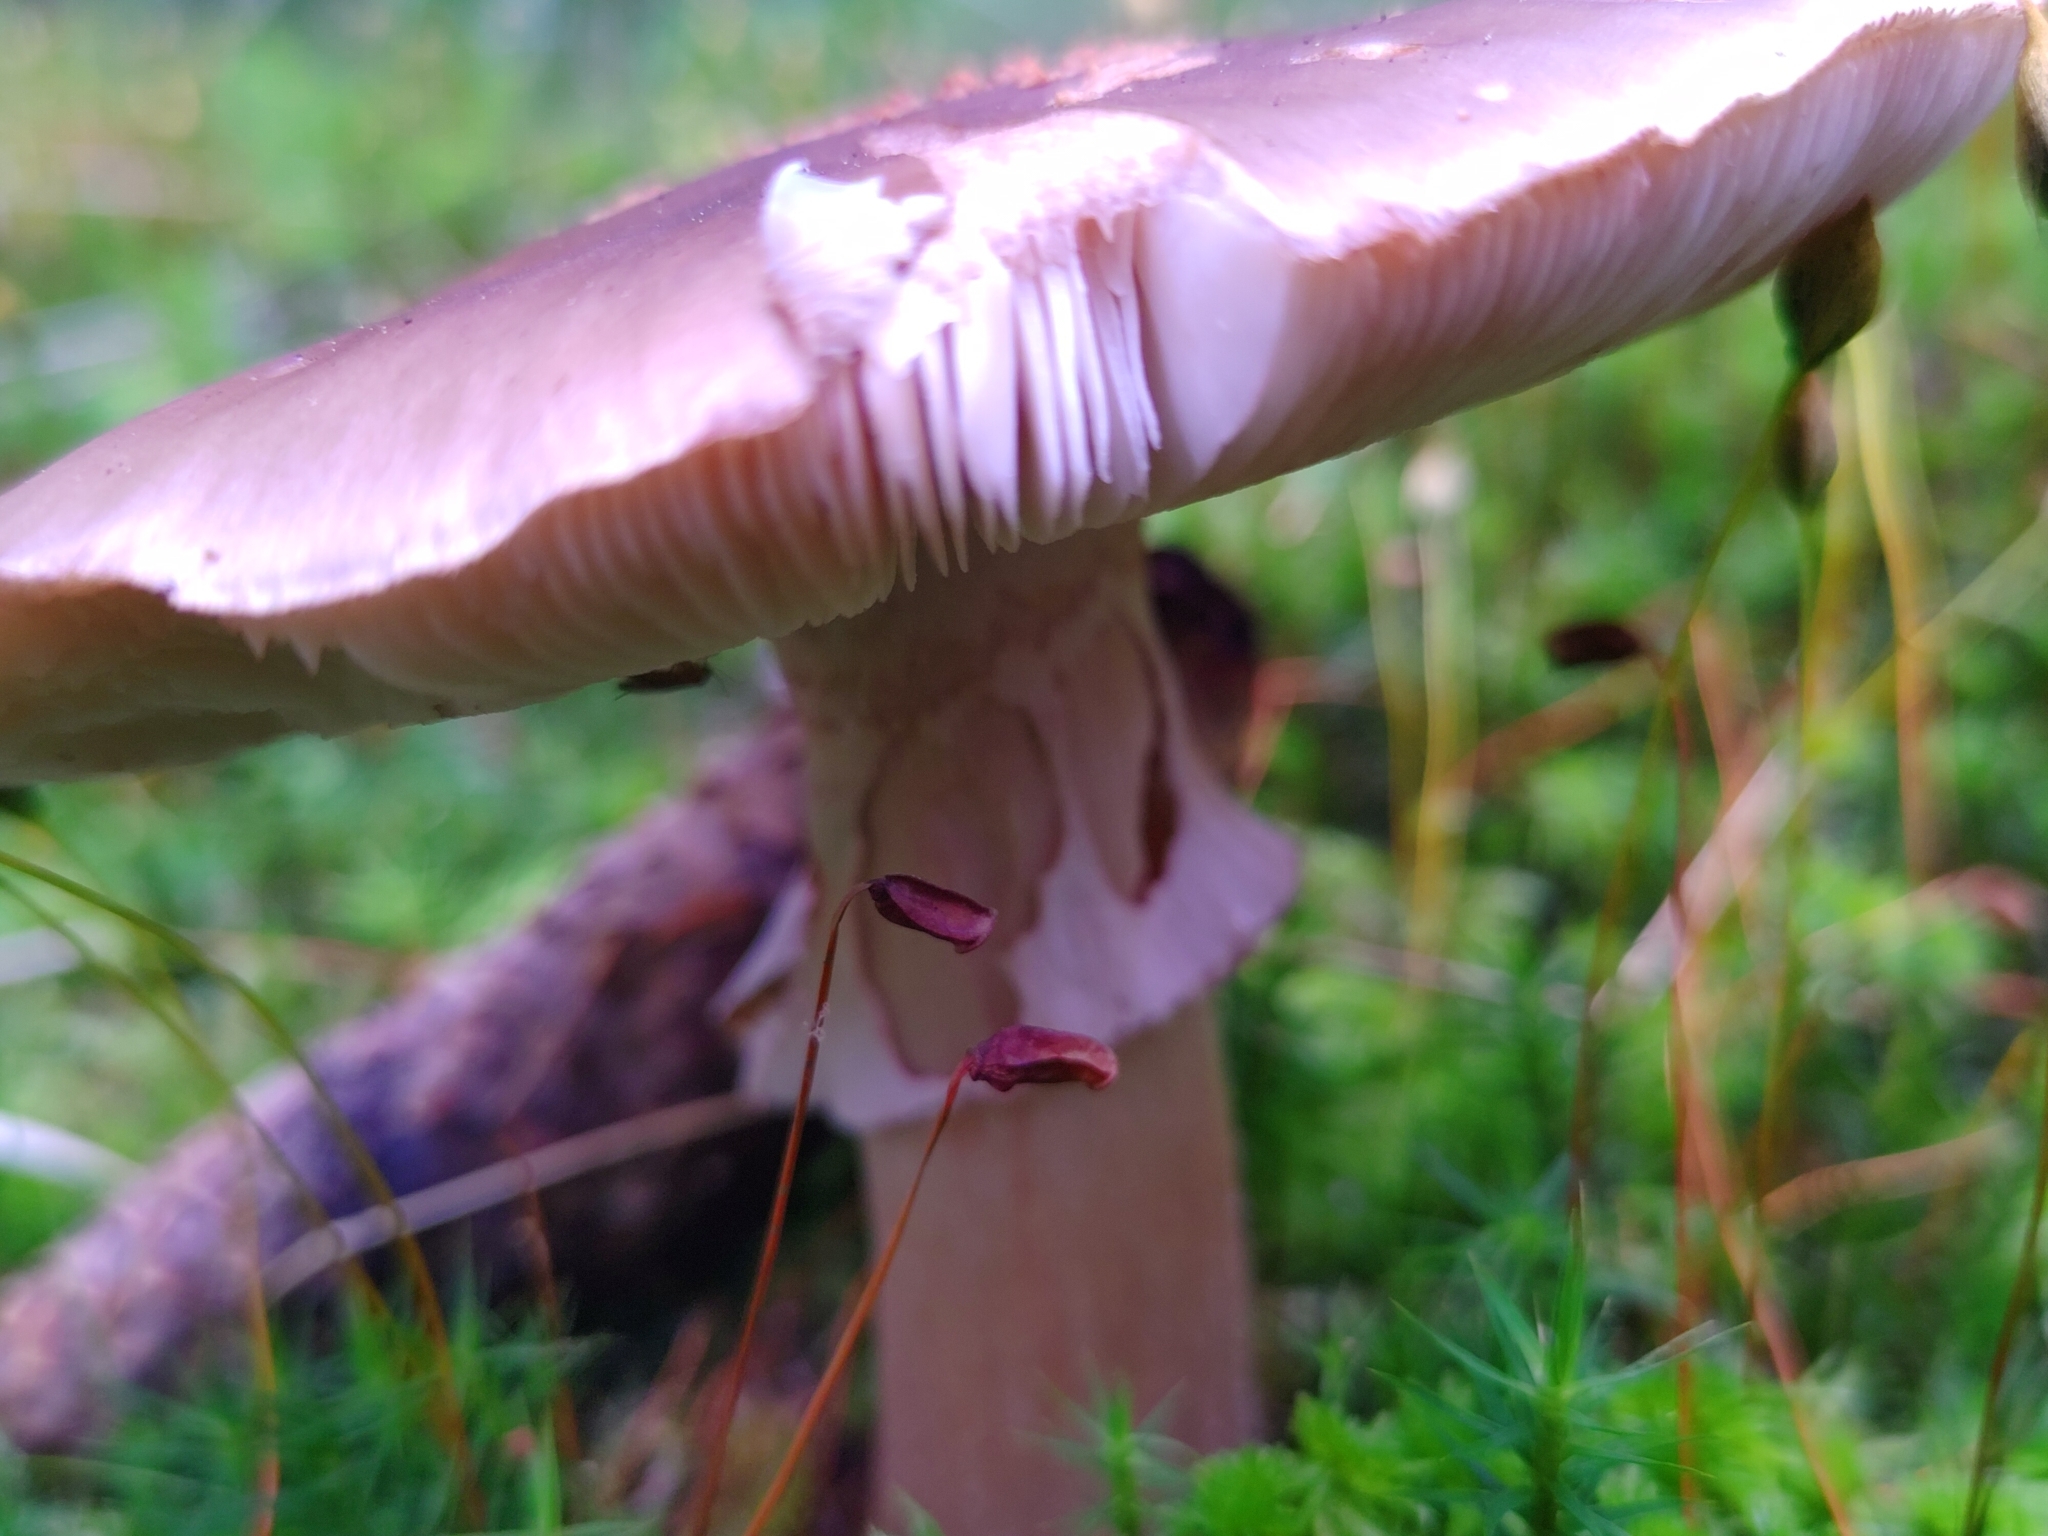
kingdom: Fungi
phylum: Basidiomycota
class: Agaricomycetes
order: Agaricales
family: Amanitaceae
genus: Amanita
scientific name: Amanita rubescens
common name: Blusher
